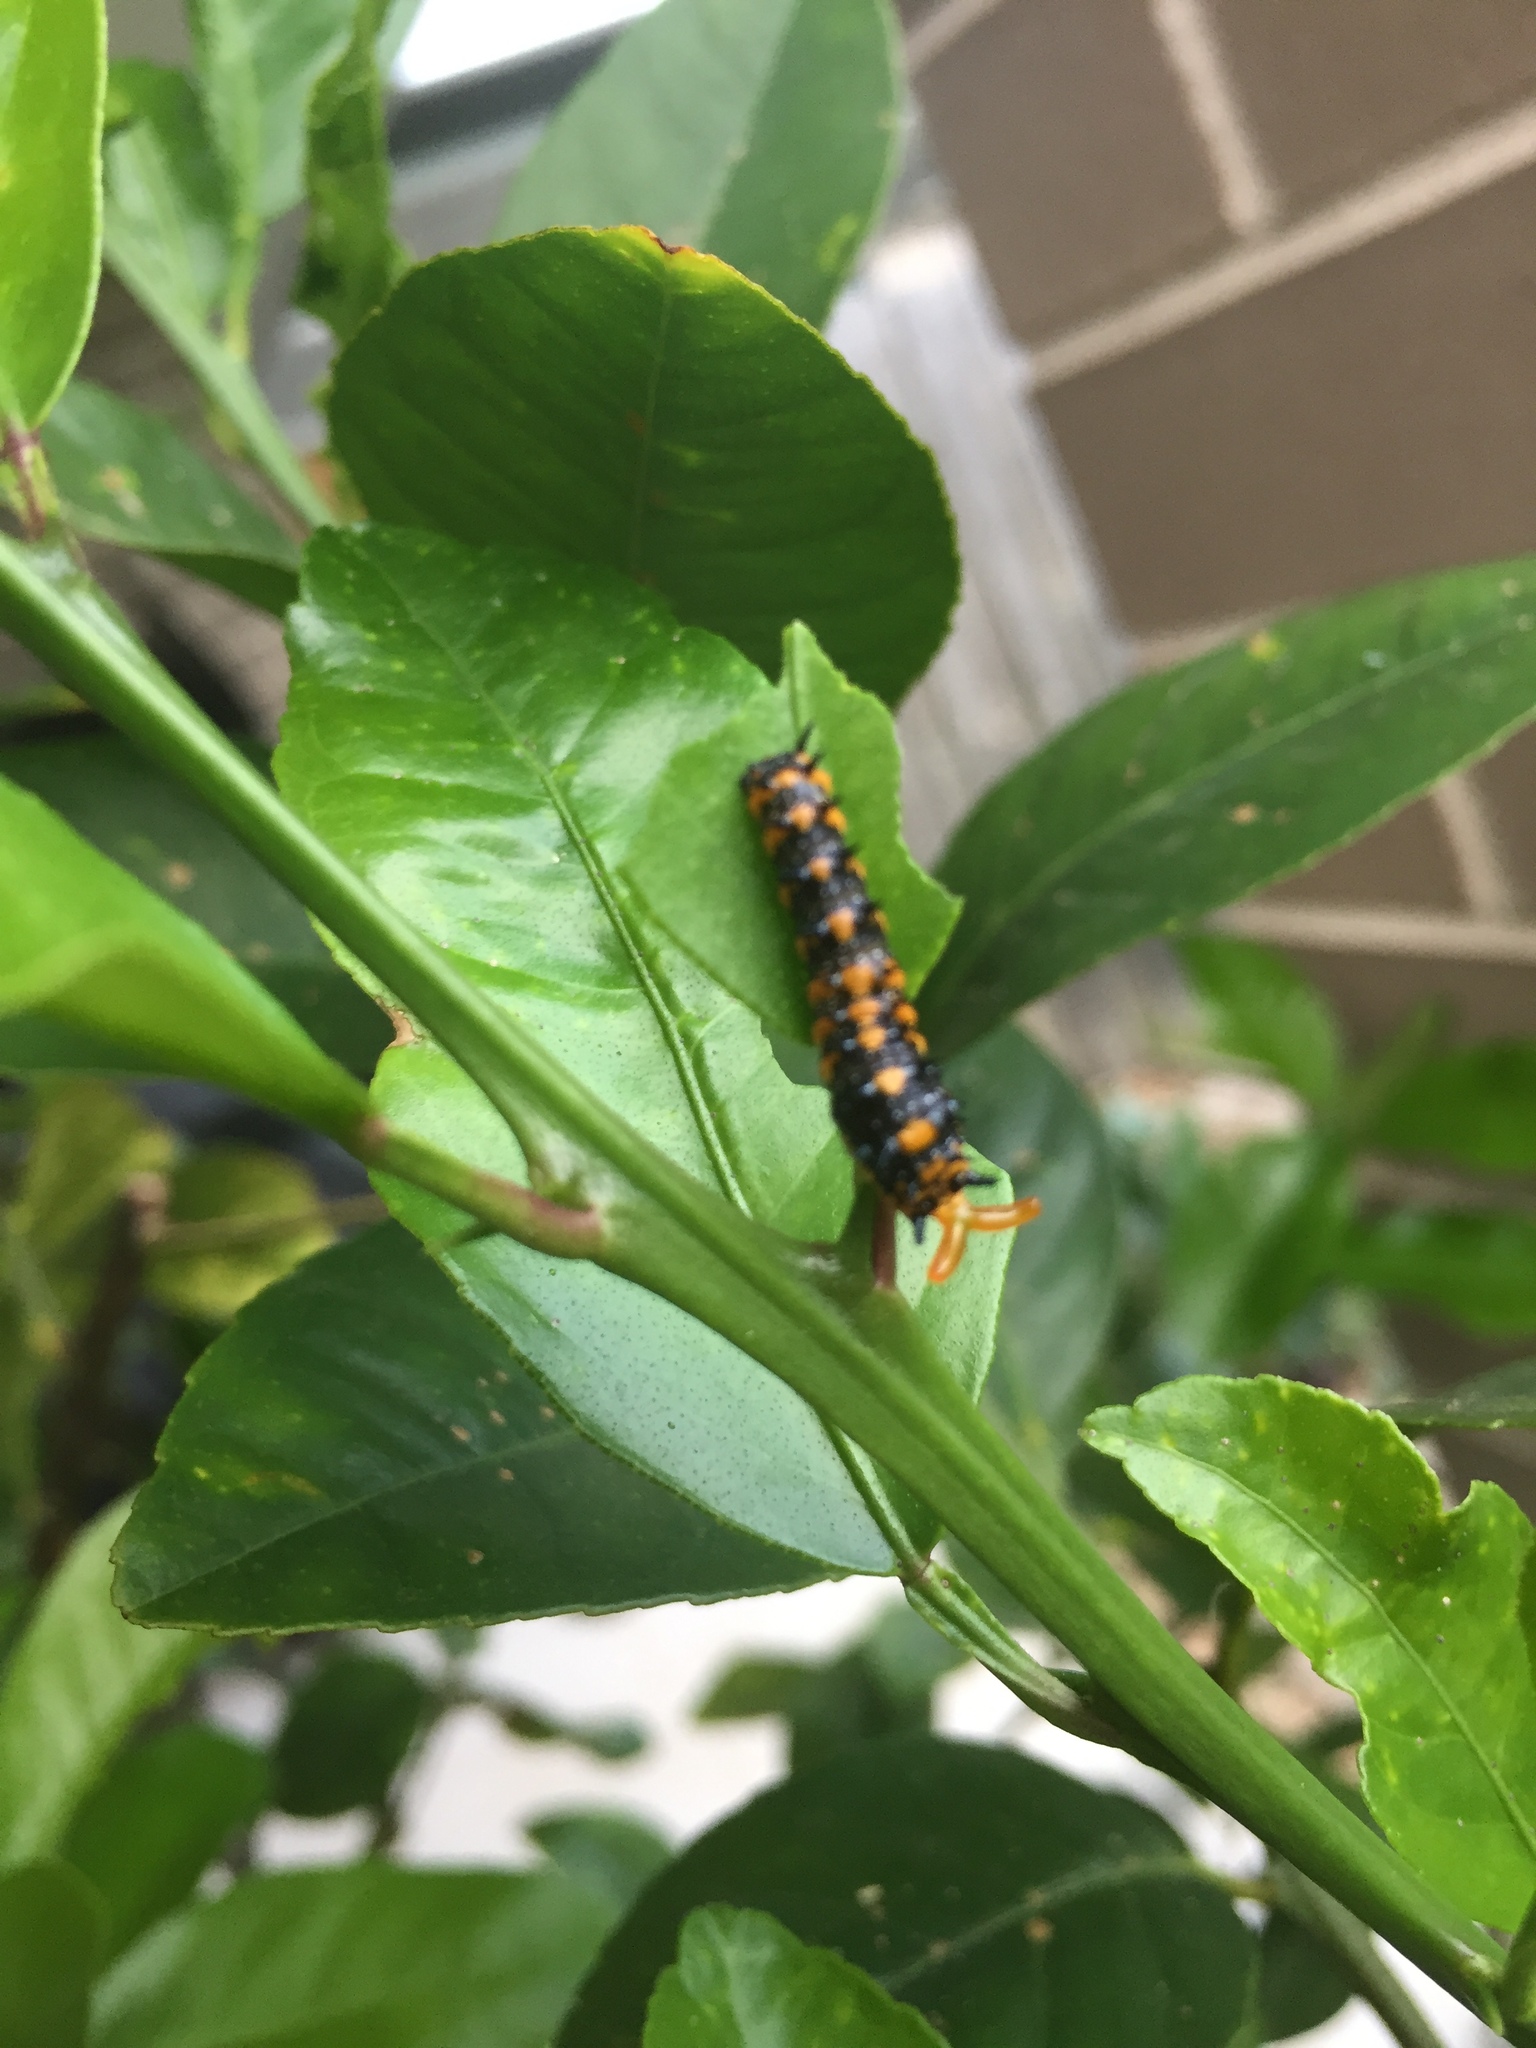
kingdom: Animalia
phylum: Arthropoda
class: Insecta
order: Lepidoptera
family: Papilionidae
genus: Papilio
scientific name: Papilio anactus
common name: Dingy swallowtail
